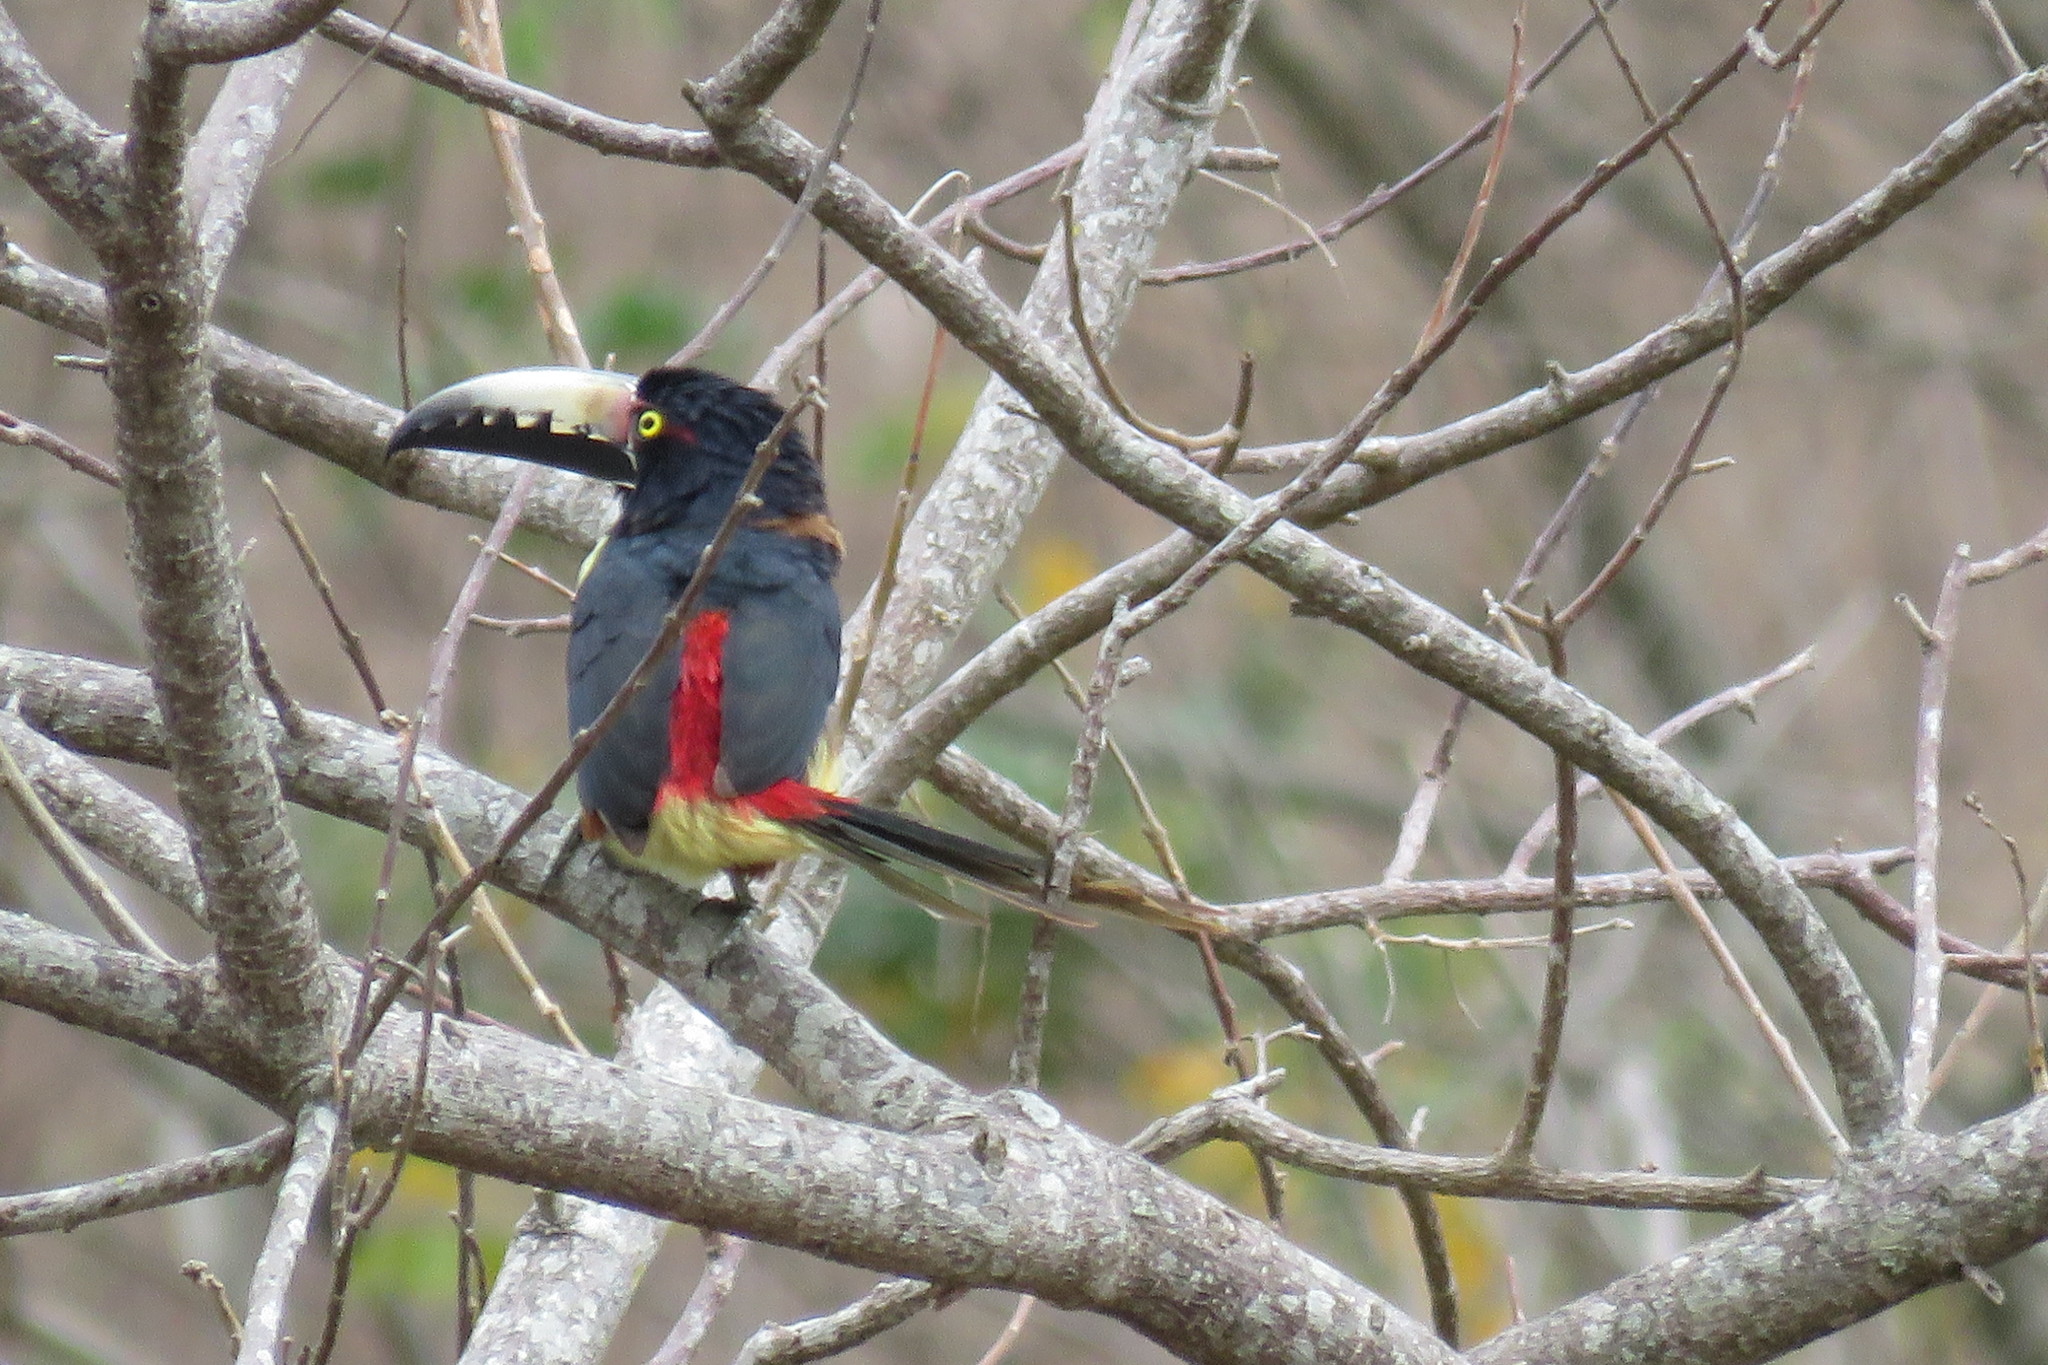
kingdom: Animalia
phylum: Chordata
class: Aves
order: Piciformes
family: Ramphastidae
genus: Pteroglossus
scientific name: Pteroglossus torquatus
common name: Collared aracari
